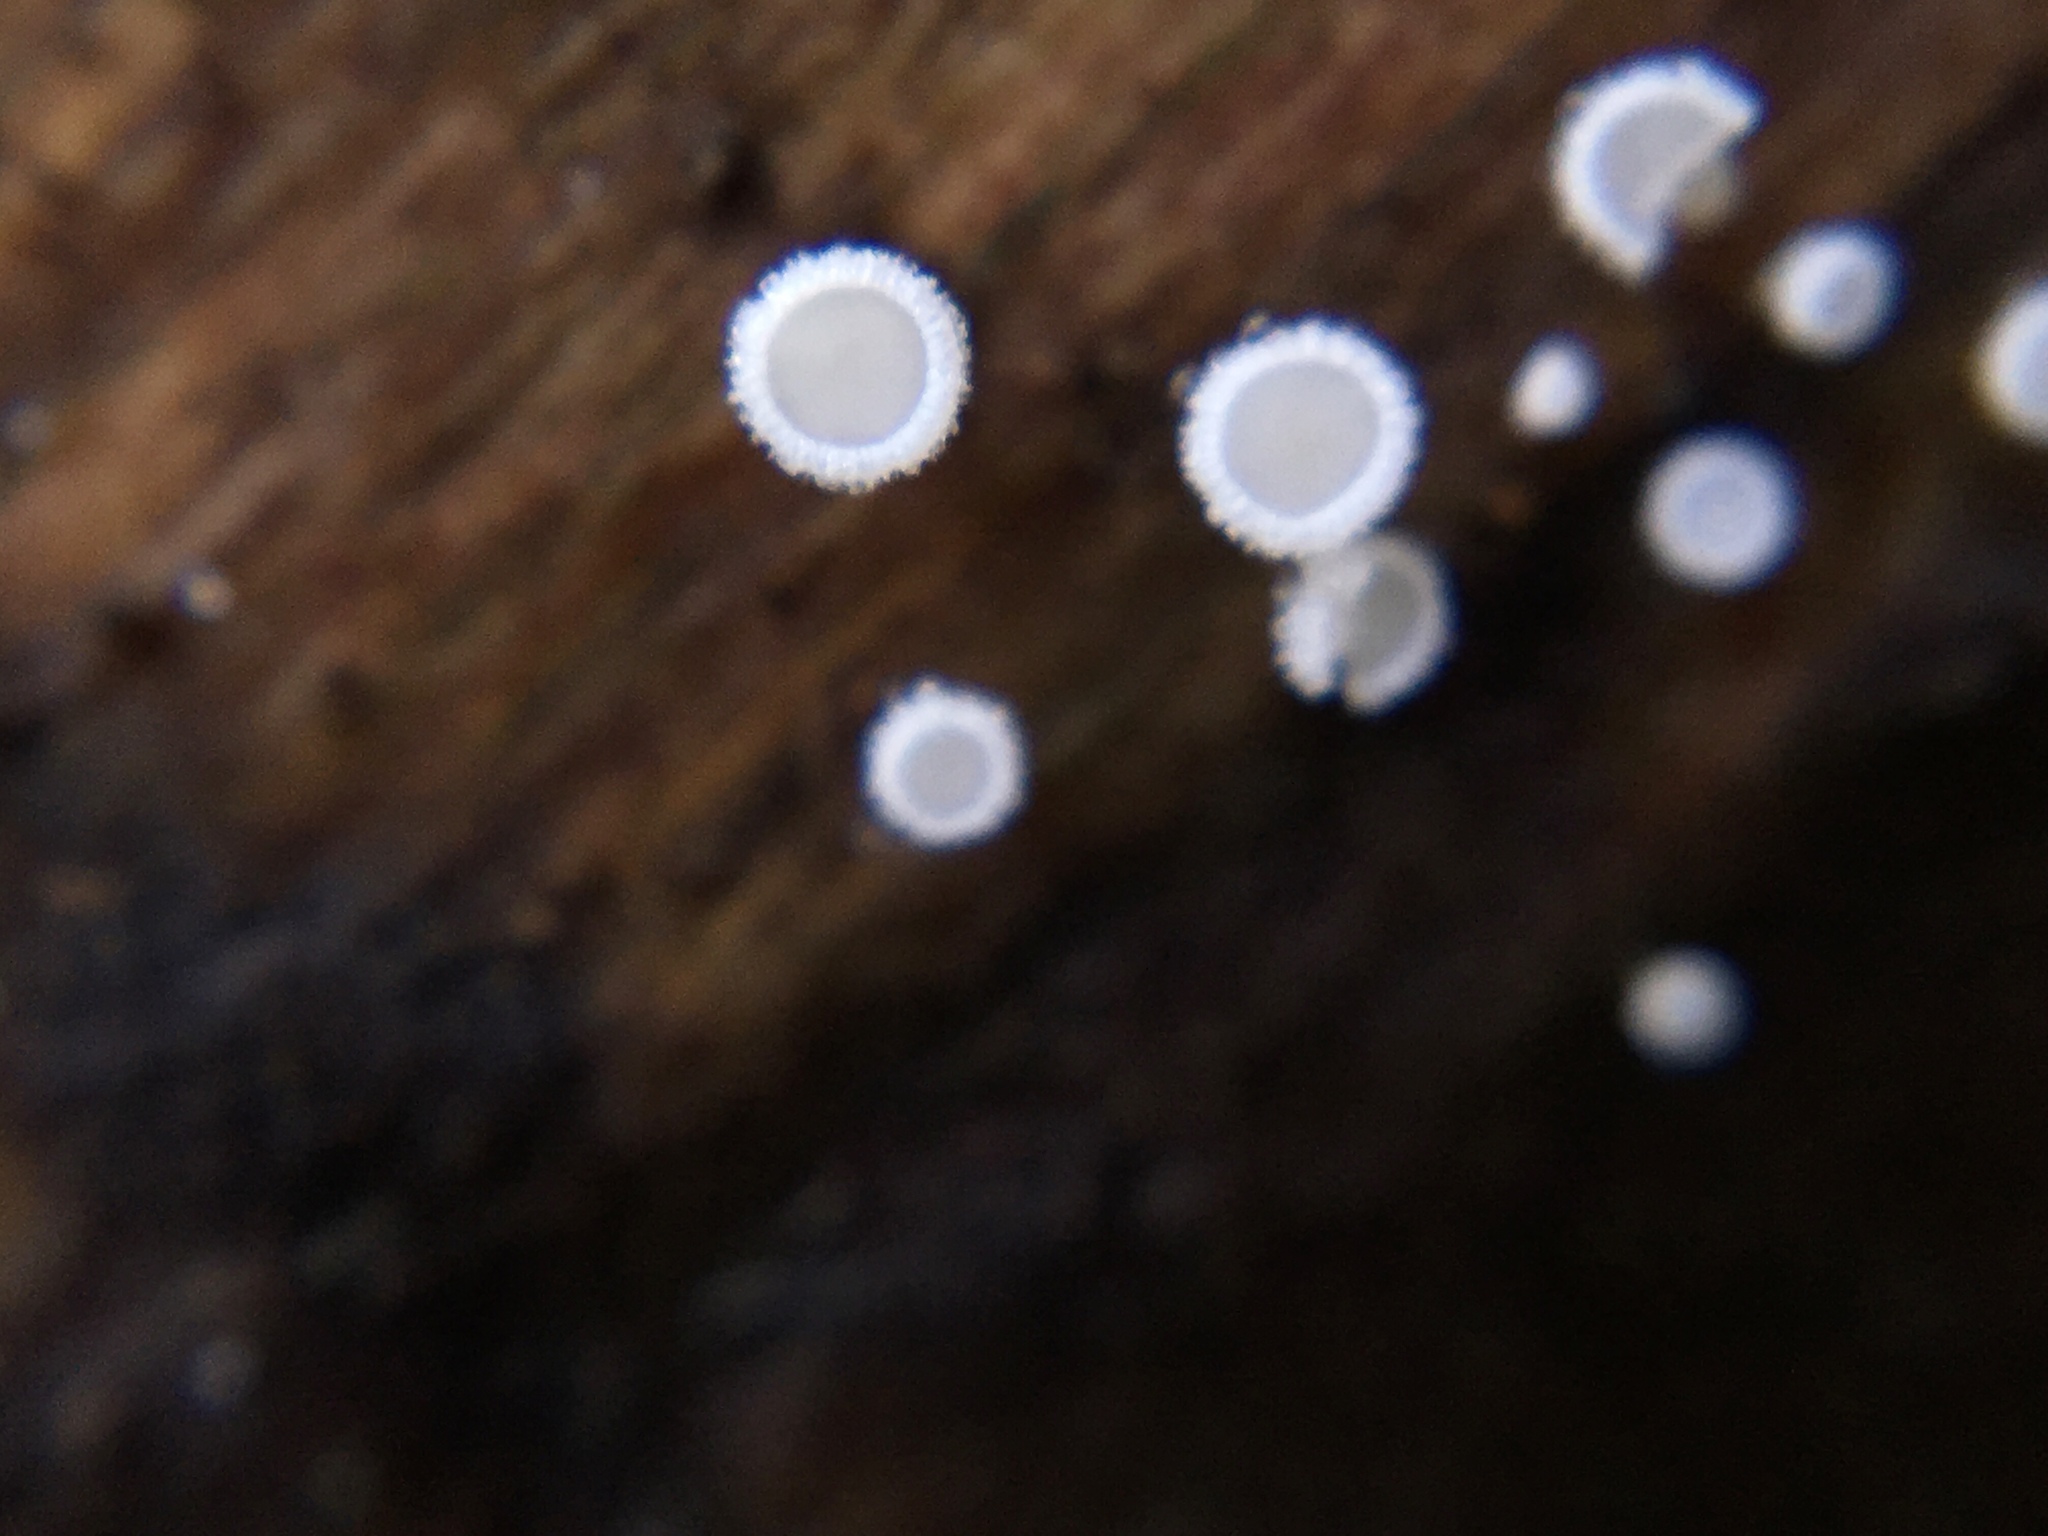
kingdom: Fungi
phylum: Ascomycota
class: Leotiomycetes
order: Helotiales
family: Lachnaceae
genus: Lachnum
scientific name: Lachnum virgineum
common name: Snowy disco
